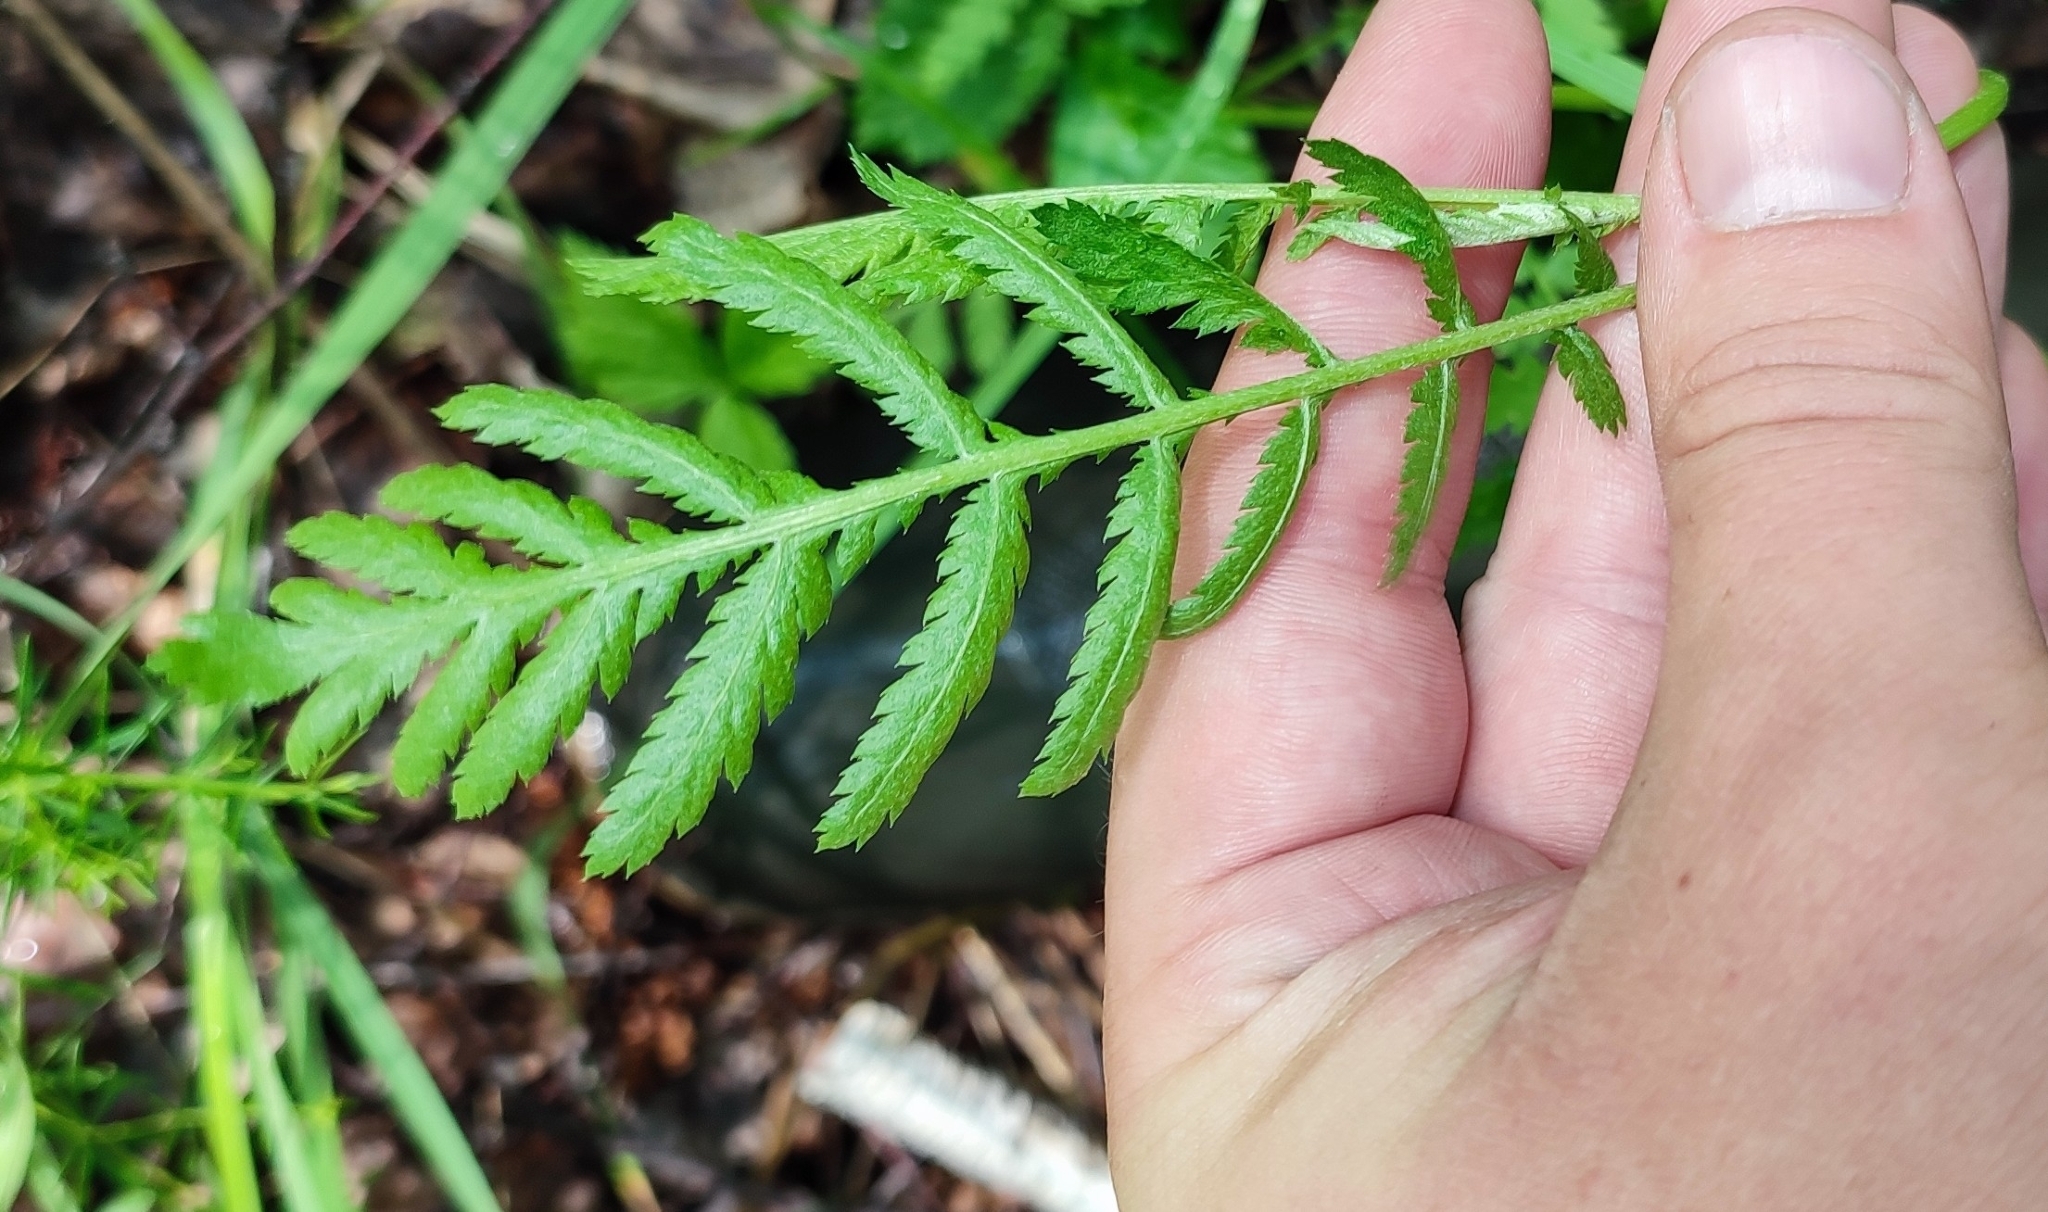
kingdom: Plantae
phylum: Tracheophyta
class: Magnoliopsida
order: Asterales
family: Asteraceae
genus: Tanacetum
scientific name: Tanacetum vulgare
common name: Common tansy
